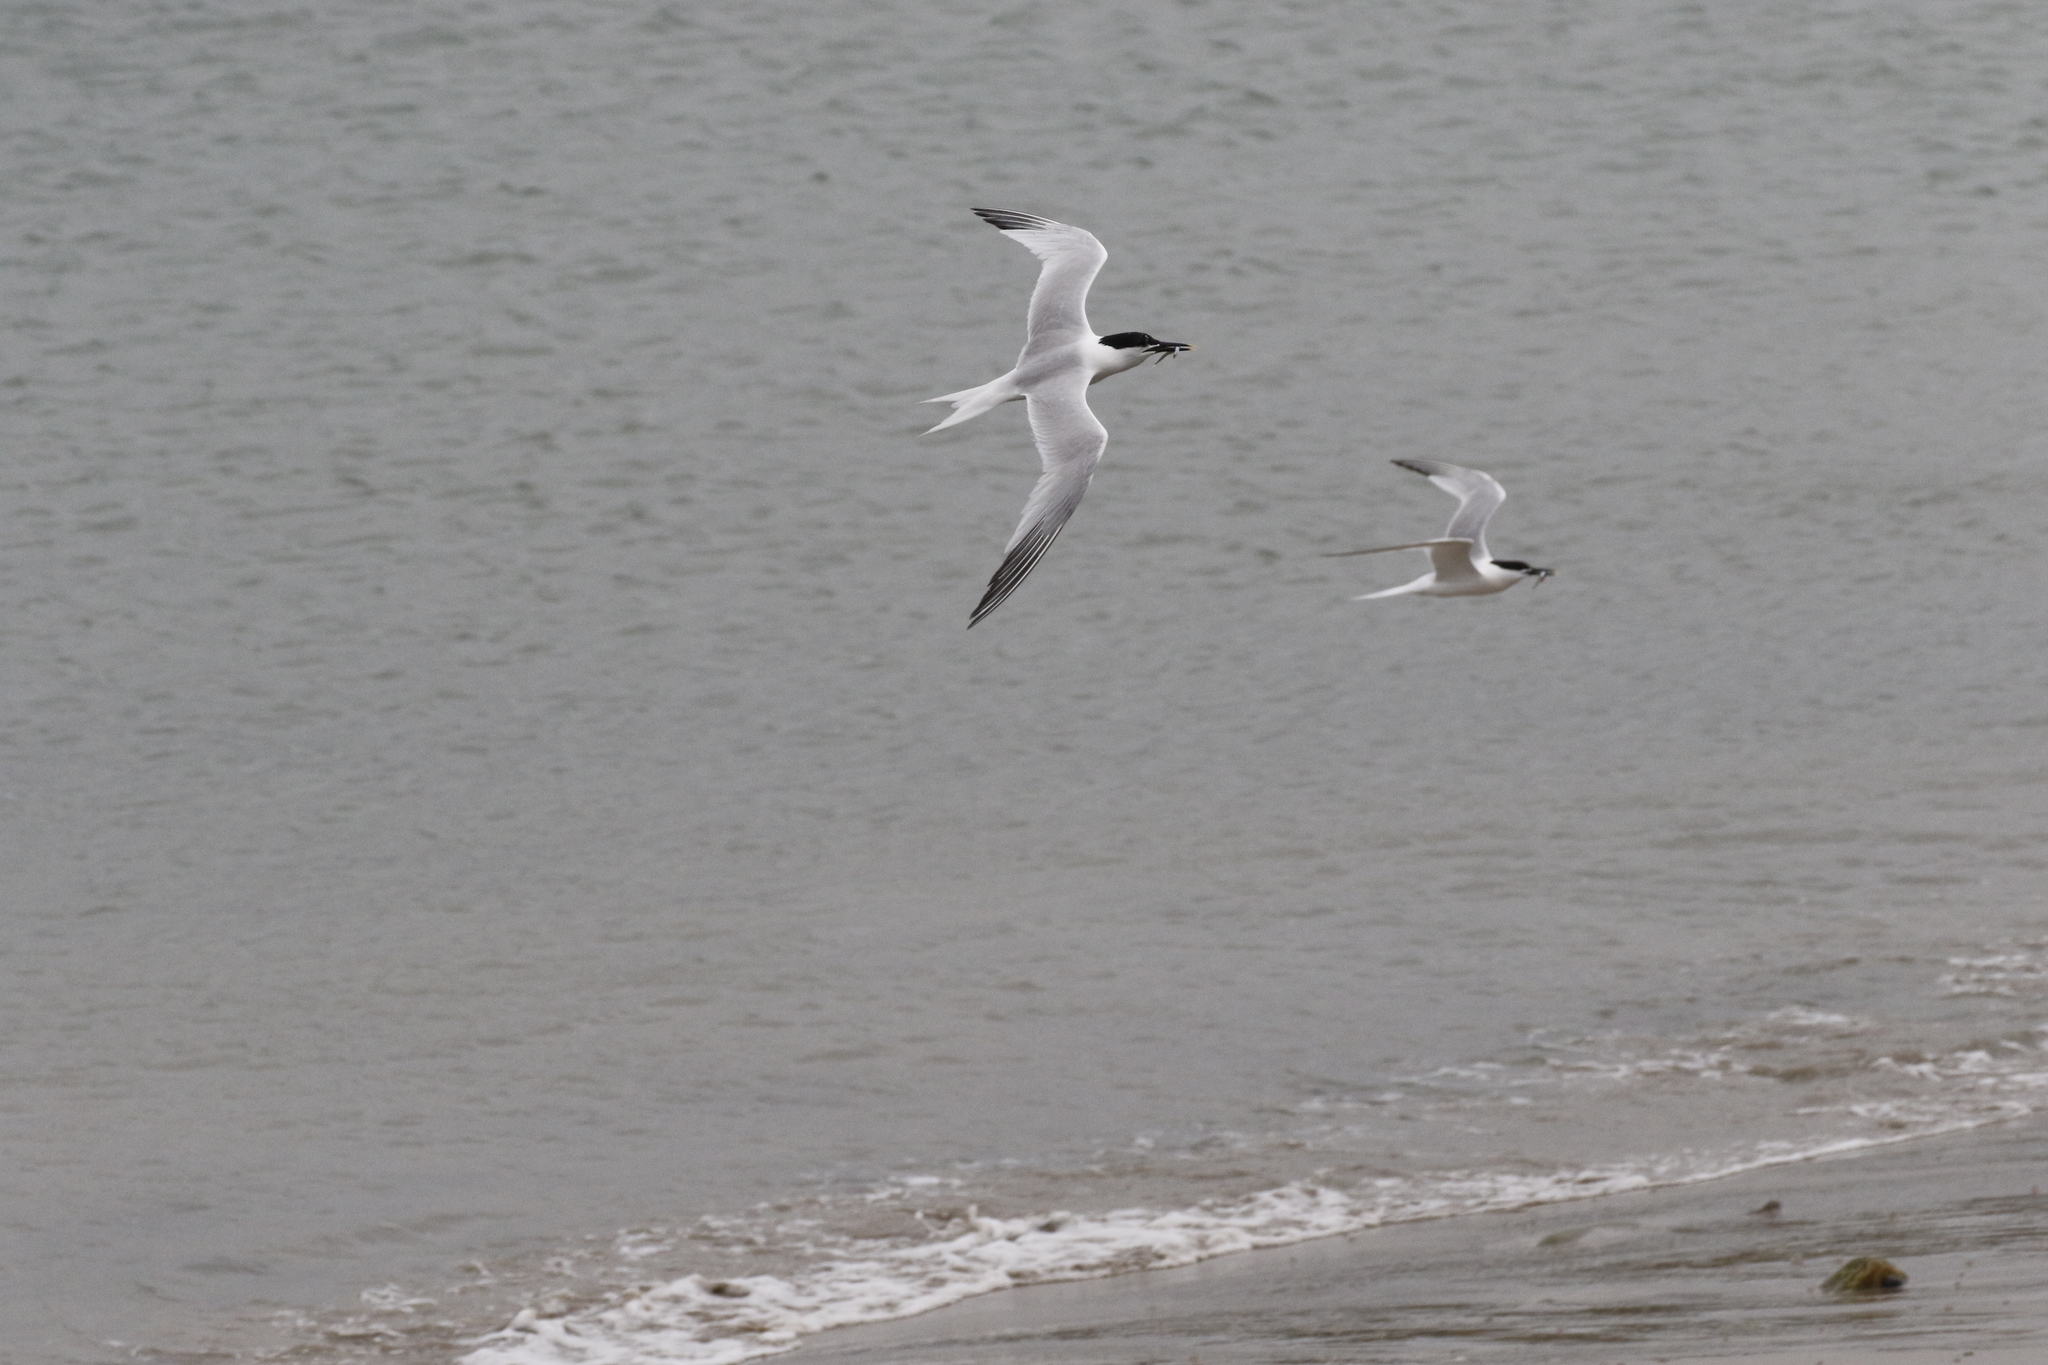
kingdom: Animalia
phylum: Chordata
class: Aves
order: Charadriiformes
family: Laridae
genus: Thalasseus
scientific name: Thalasseus sandvicensis
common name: Sandwich tern
